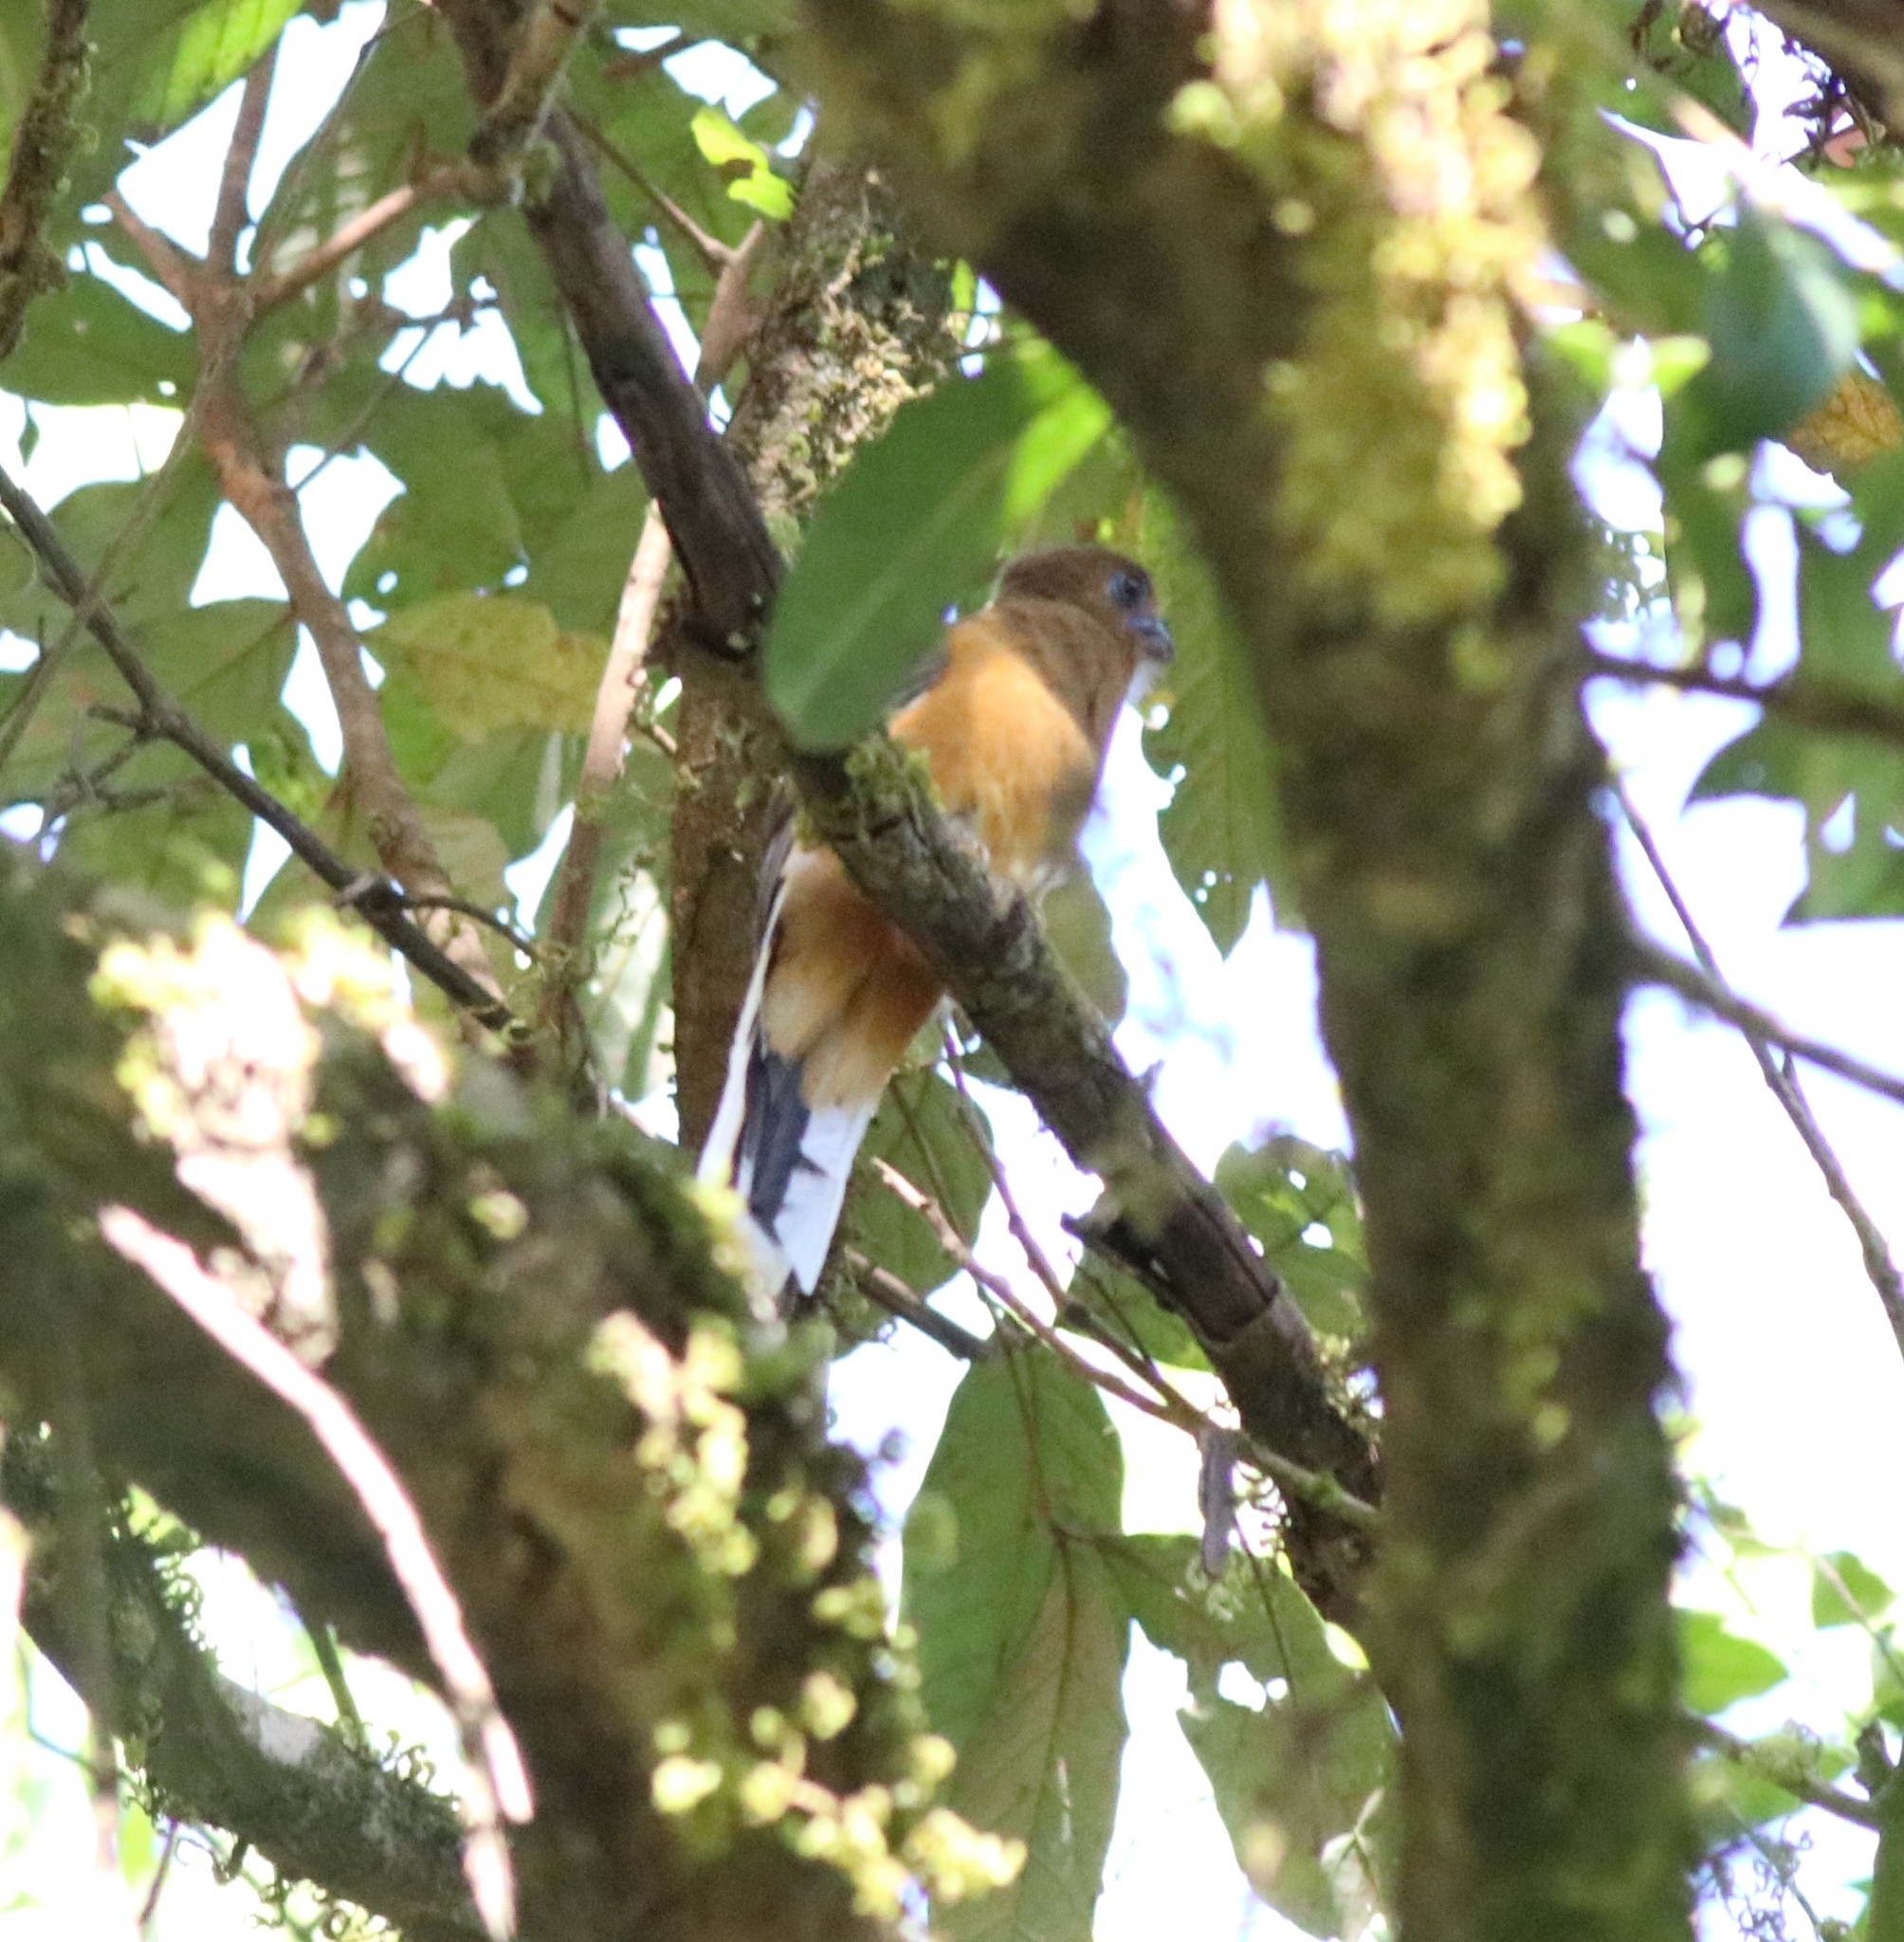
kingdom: Animalia
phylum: Chordata
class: Aves
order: Trogoniformes
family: Trogonidae
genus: Harpactes
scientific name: Harpactes fasciatus
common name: Malabar trogon
